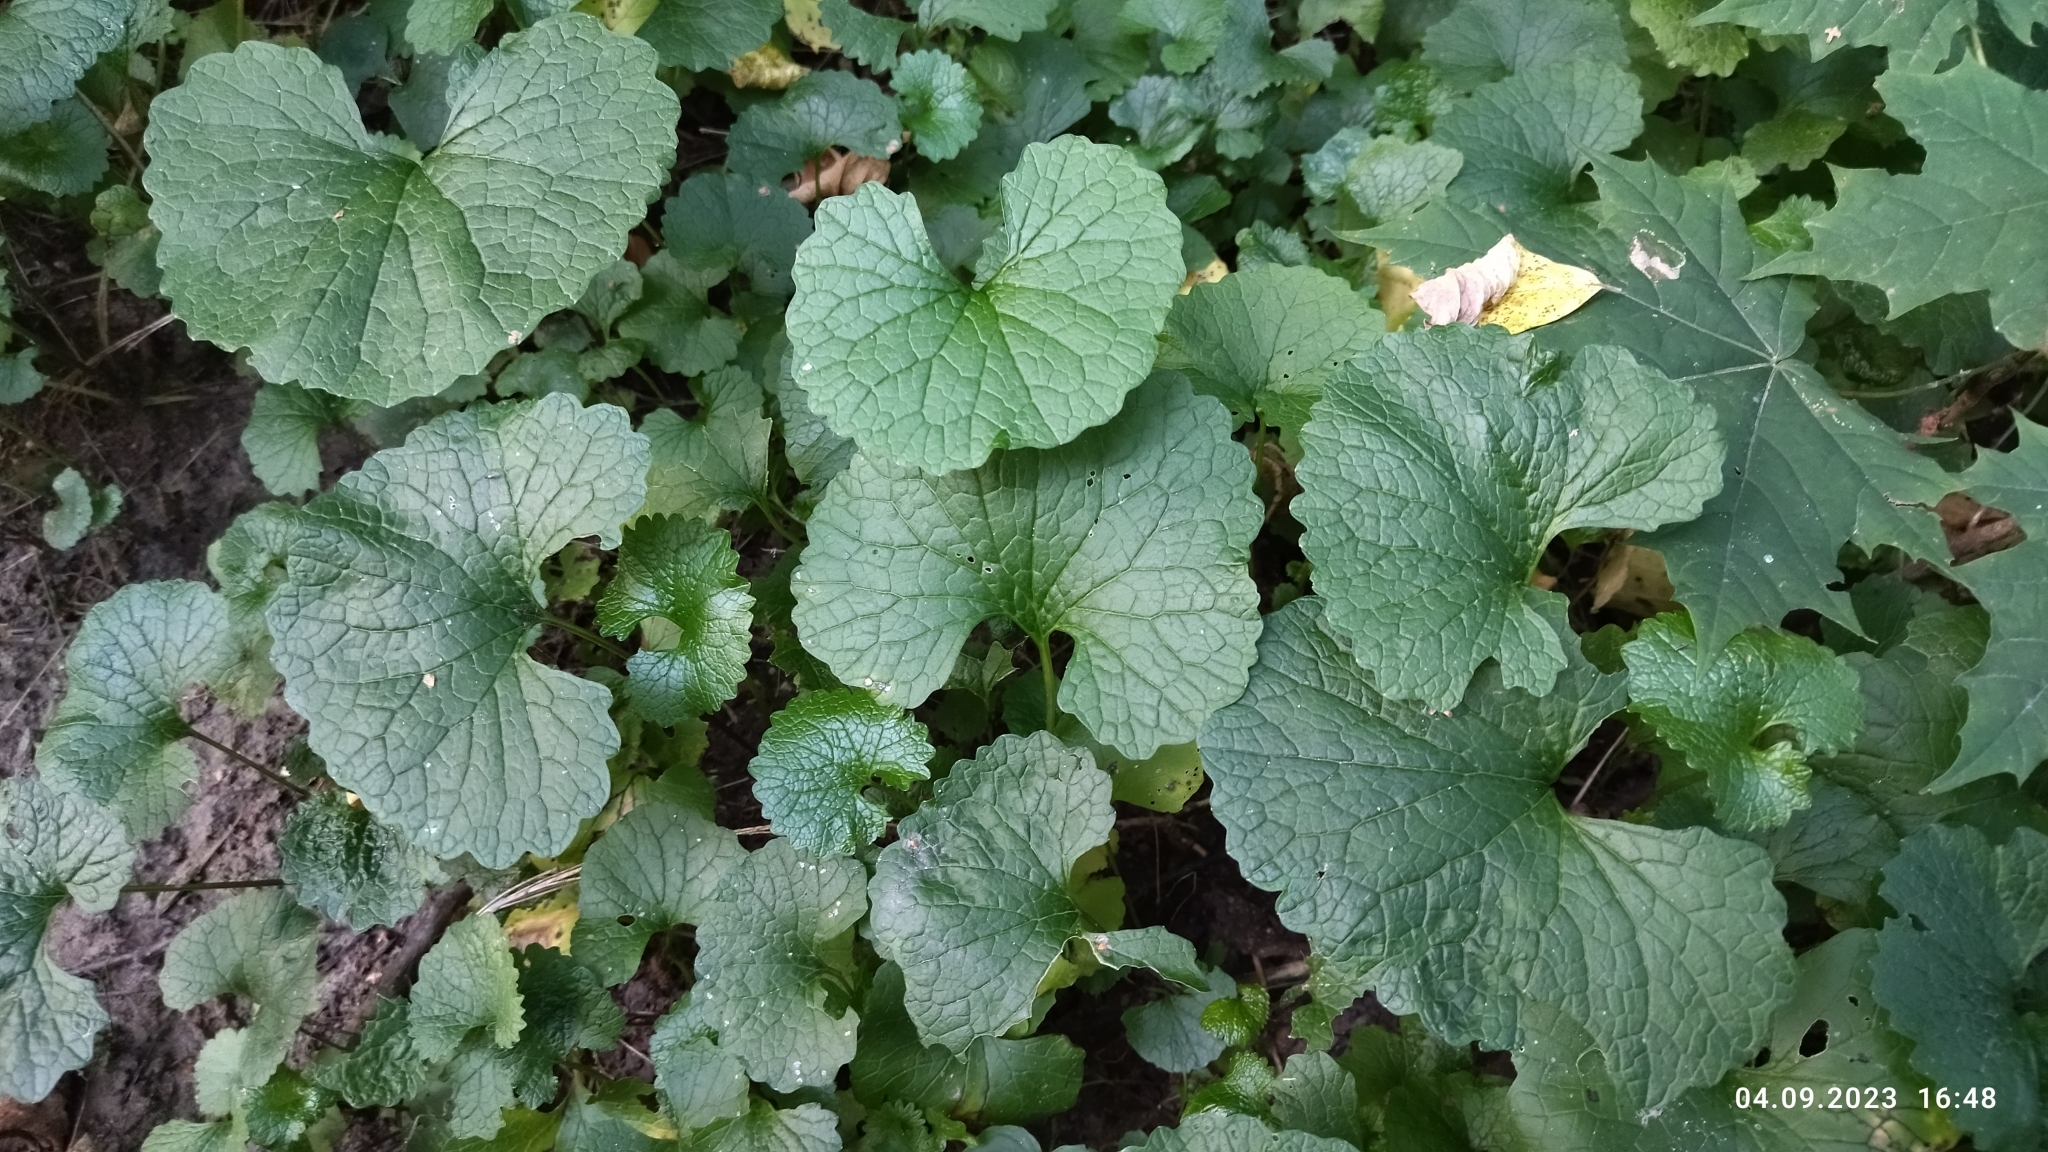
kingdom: Plantae
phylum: Tracheophyta
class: Magnoliopsida
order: Brassicales
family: Brassicaceae
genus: Alliaria
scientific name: Alliaria petiolata
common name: Garlic mustard
